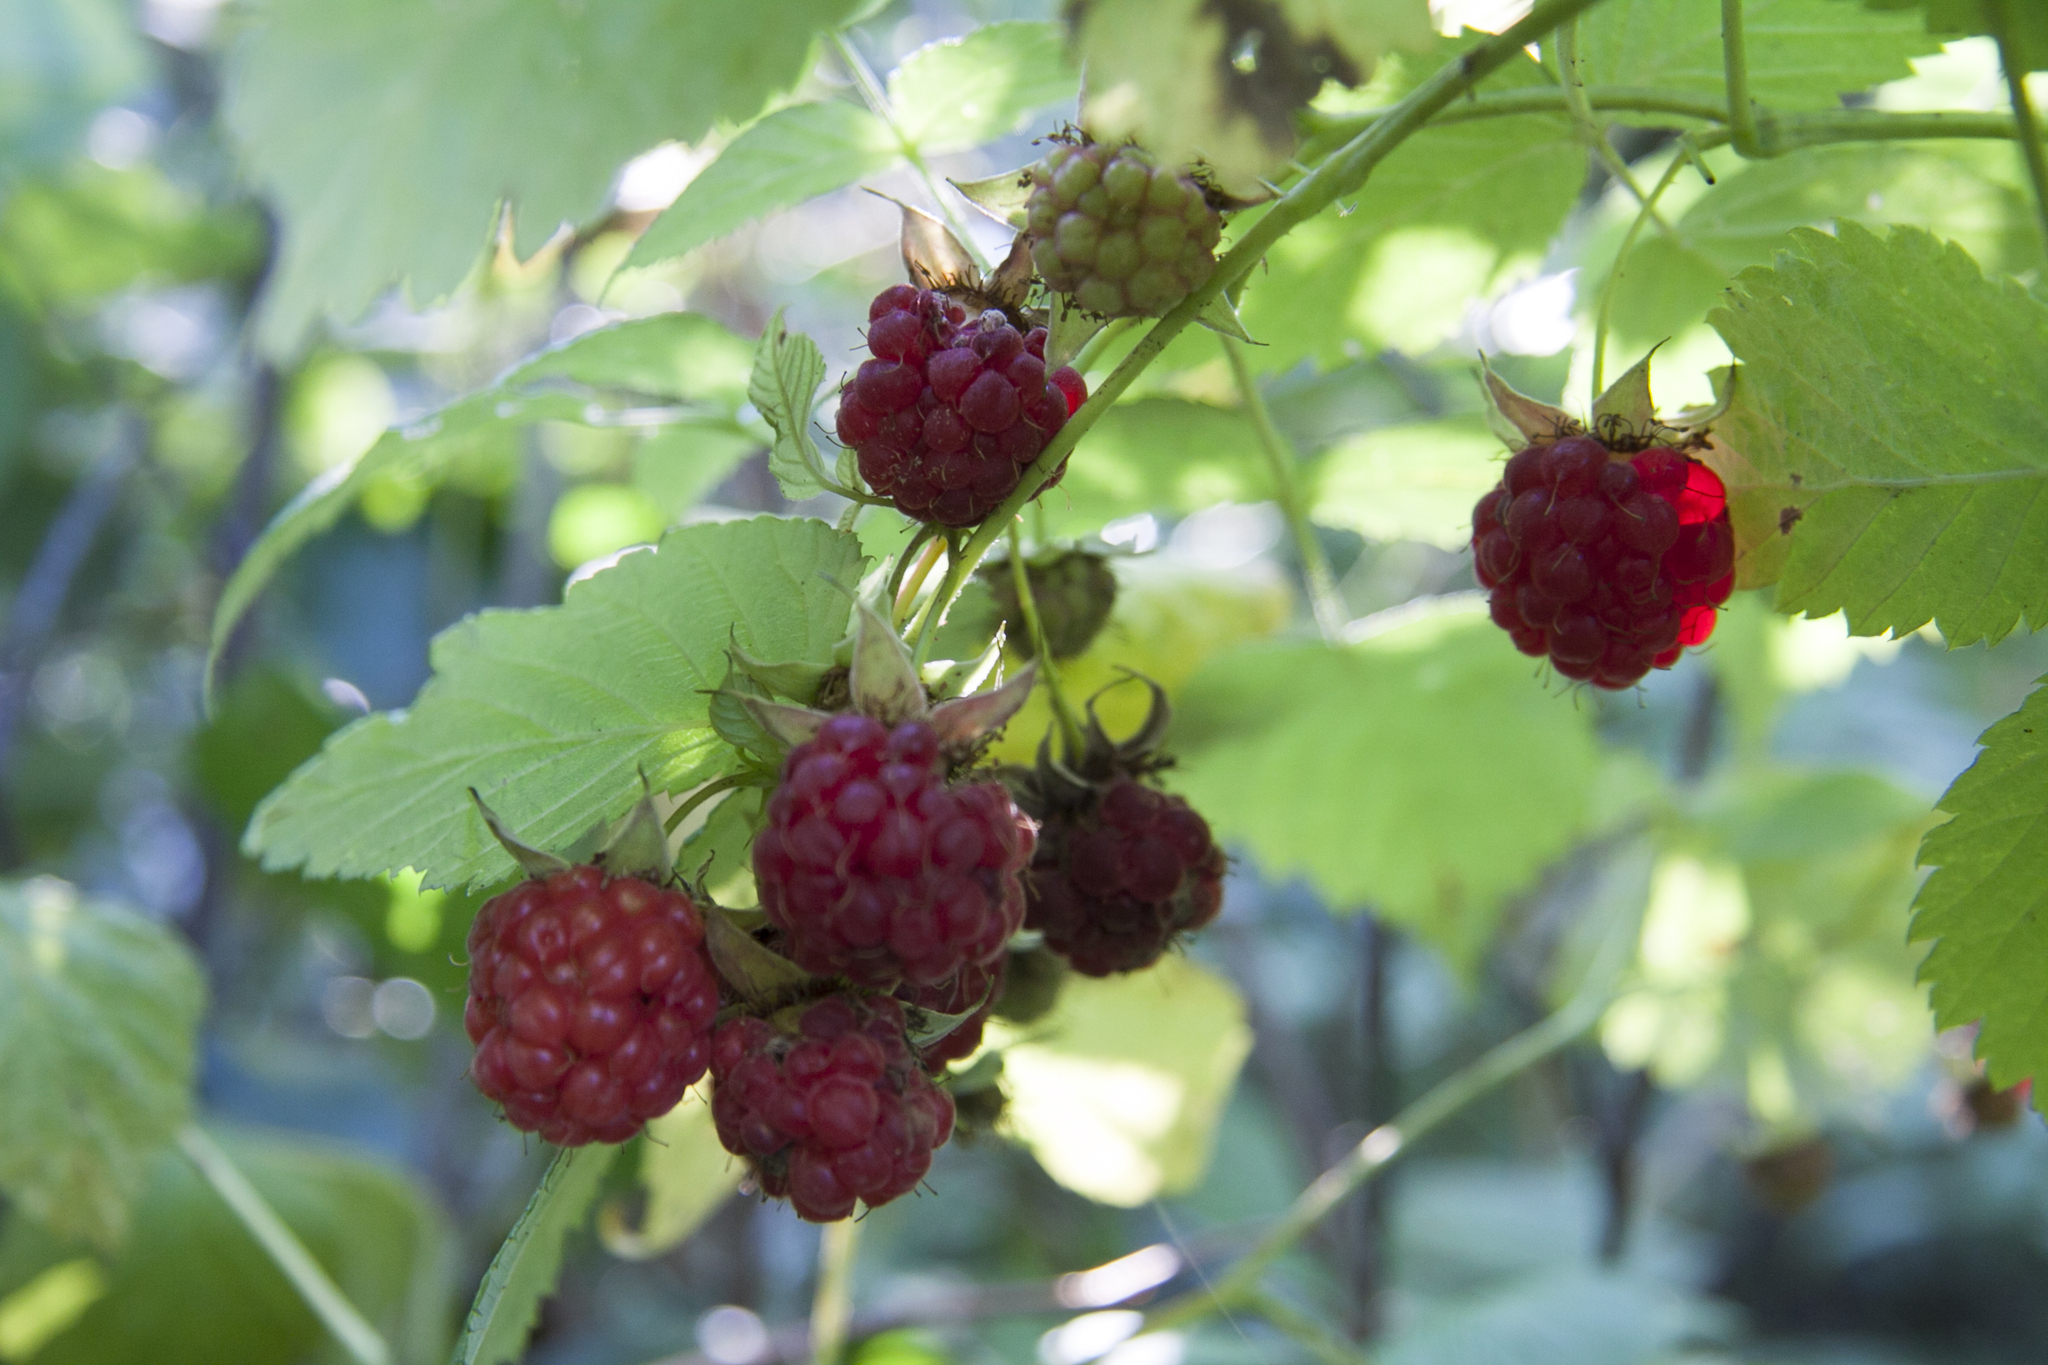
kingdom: Plantae
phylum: Tracheophyta
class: Magnoliopsida
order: Rosales
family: Rosaceae
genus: Rubus
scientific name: Rubus idaeus
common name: Raspberry
